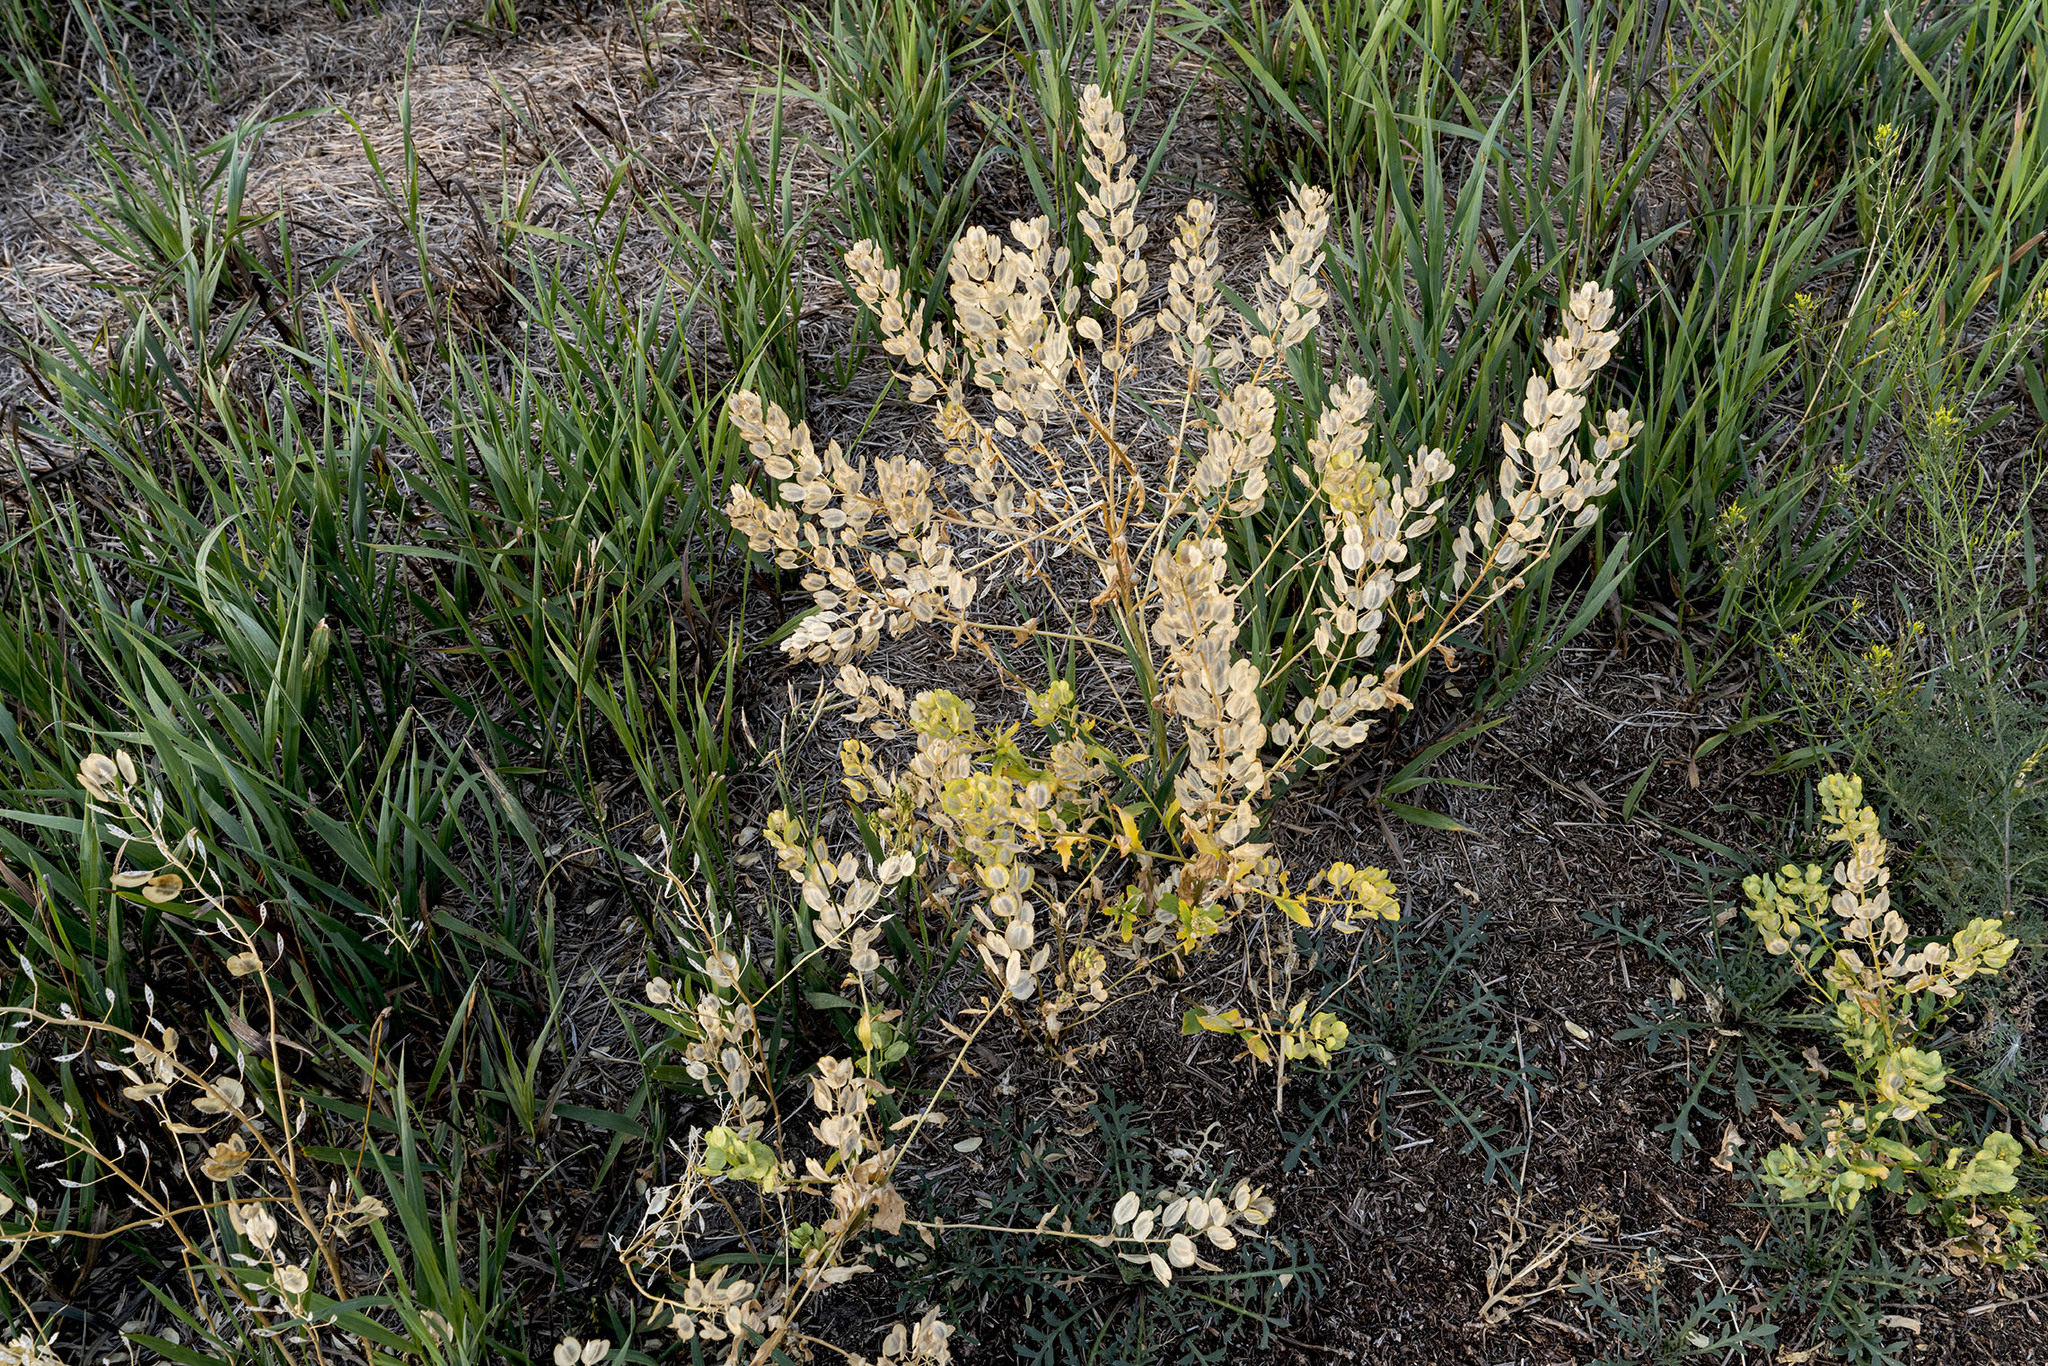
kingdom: Plantae
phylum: Tracheophyta
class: Magnoliopsida
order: Brassicales
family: Brassicaceae
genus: Thlaspi
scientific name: Thlaspi arvense
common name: Field pennycress
